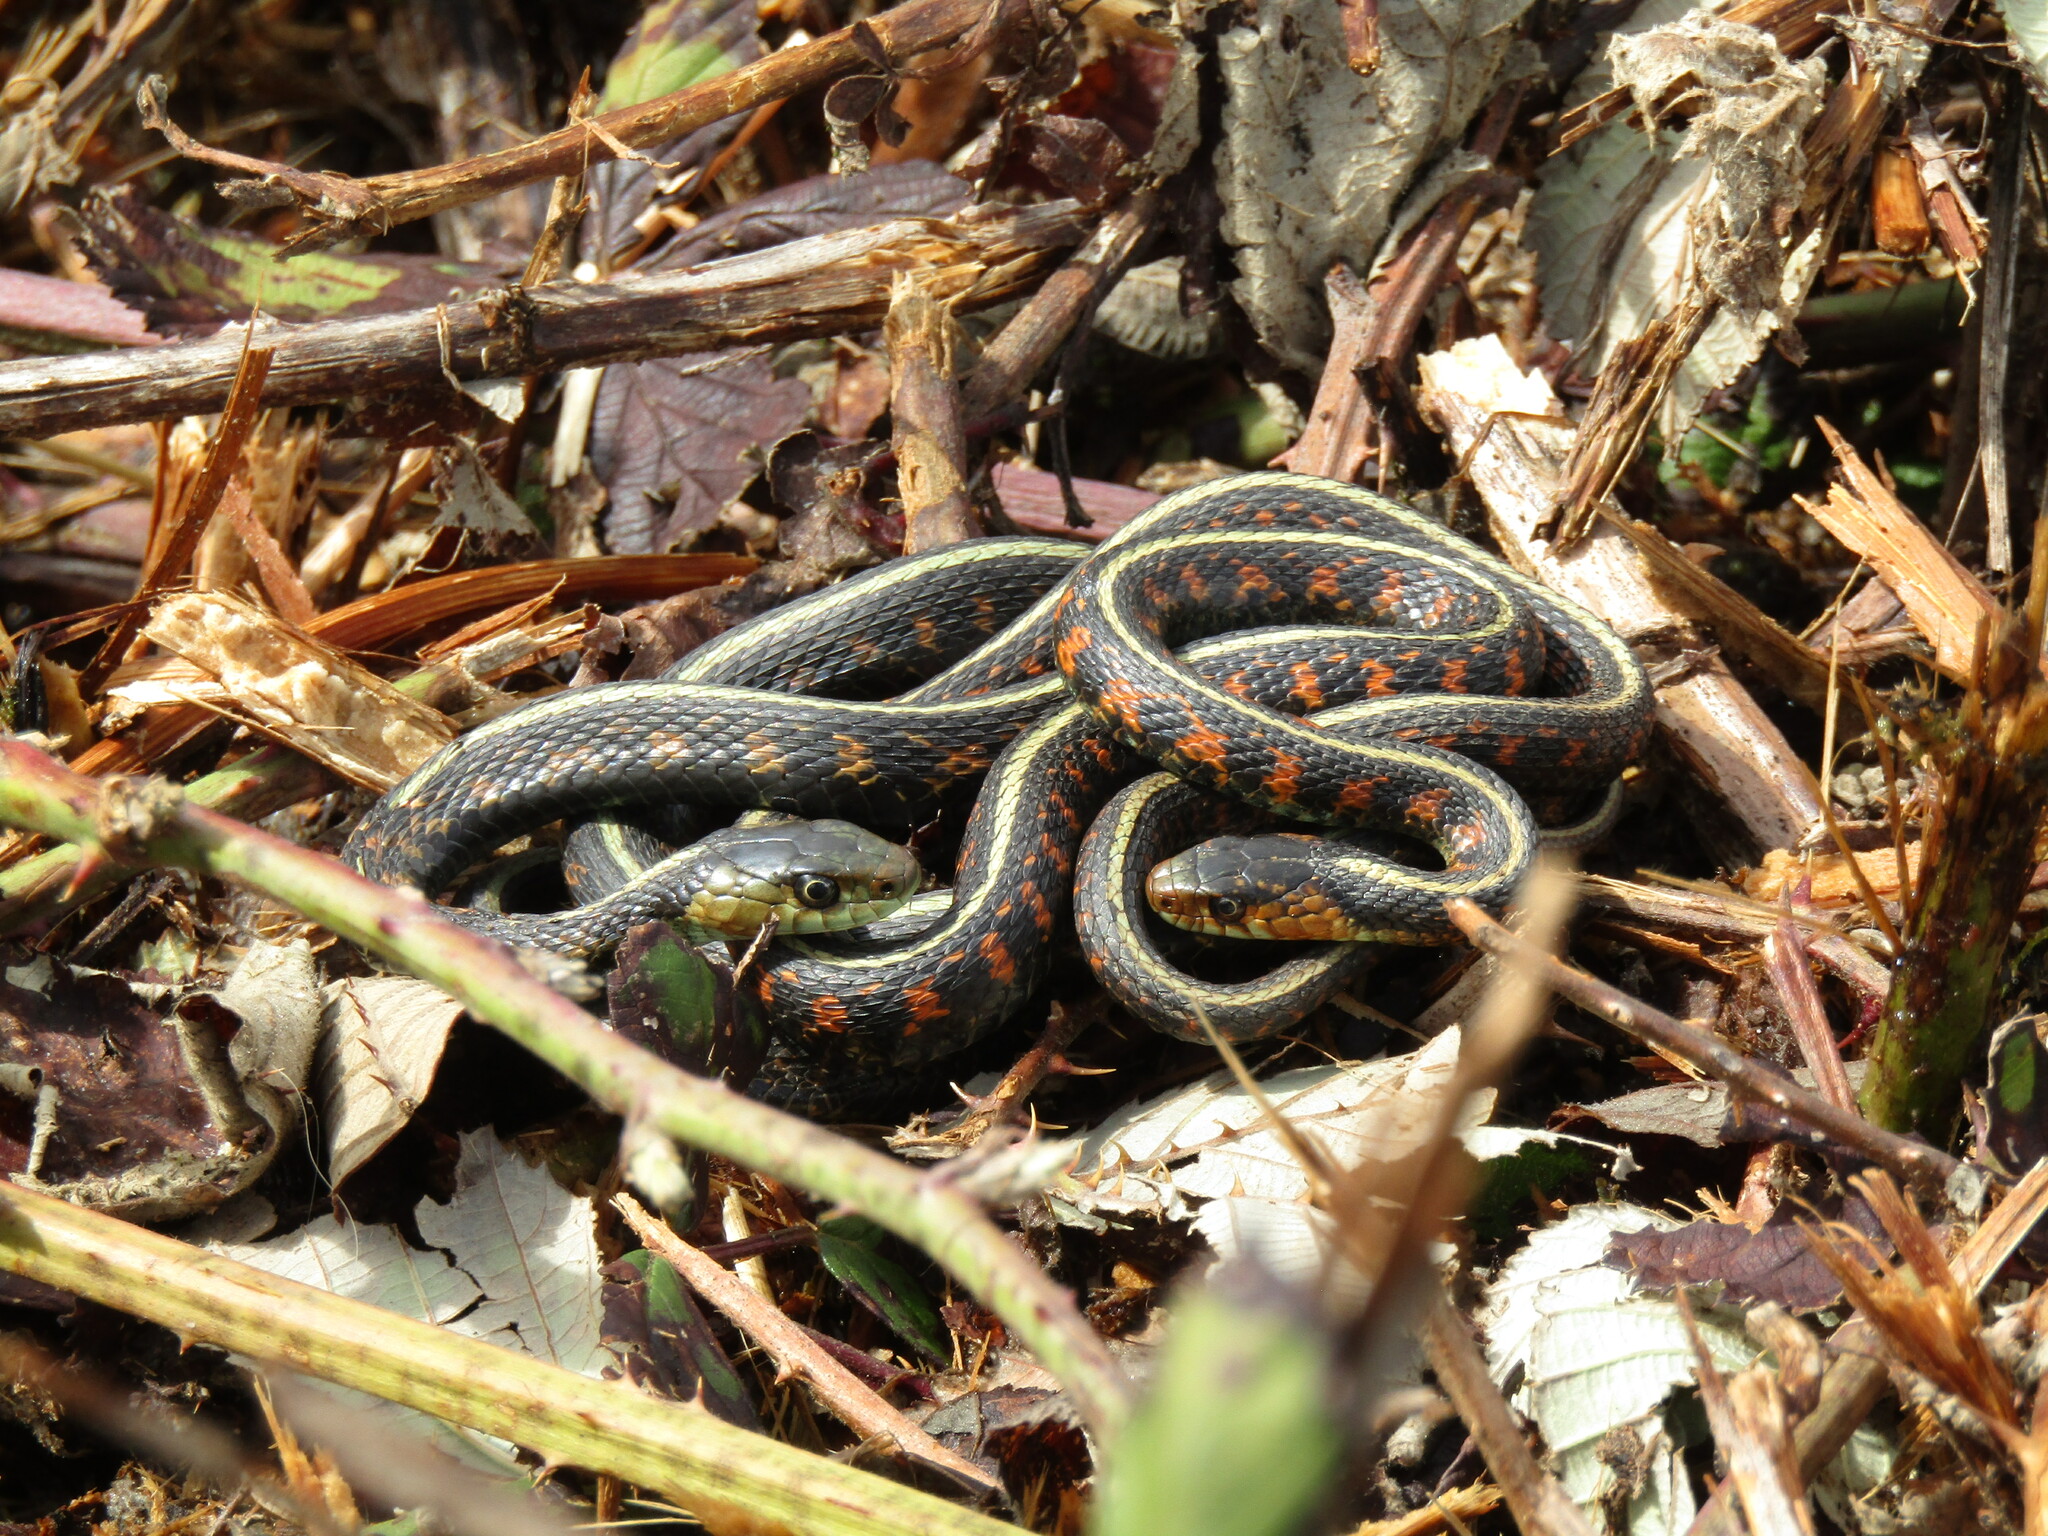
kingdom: Animalia
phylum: Chordata
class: Squamata
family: Colubridae
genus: Thamnophis
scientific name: Thamnophis sirtalis
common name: Common garter snake
